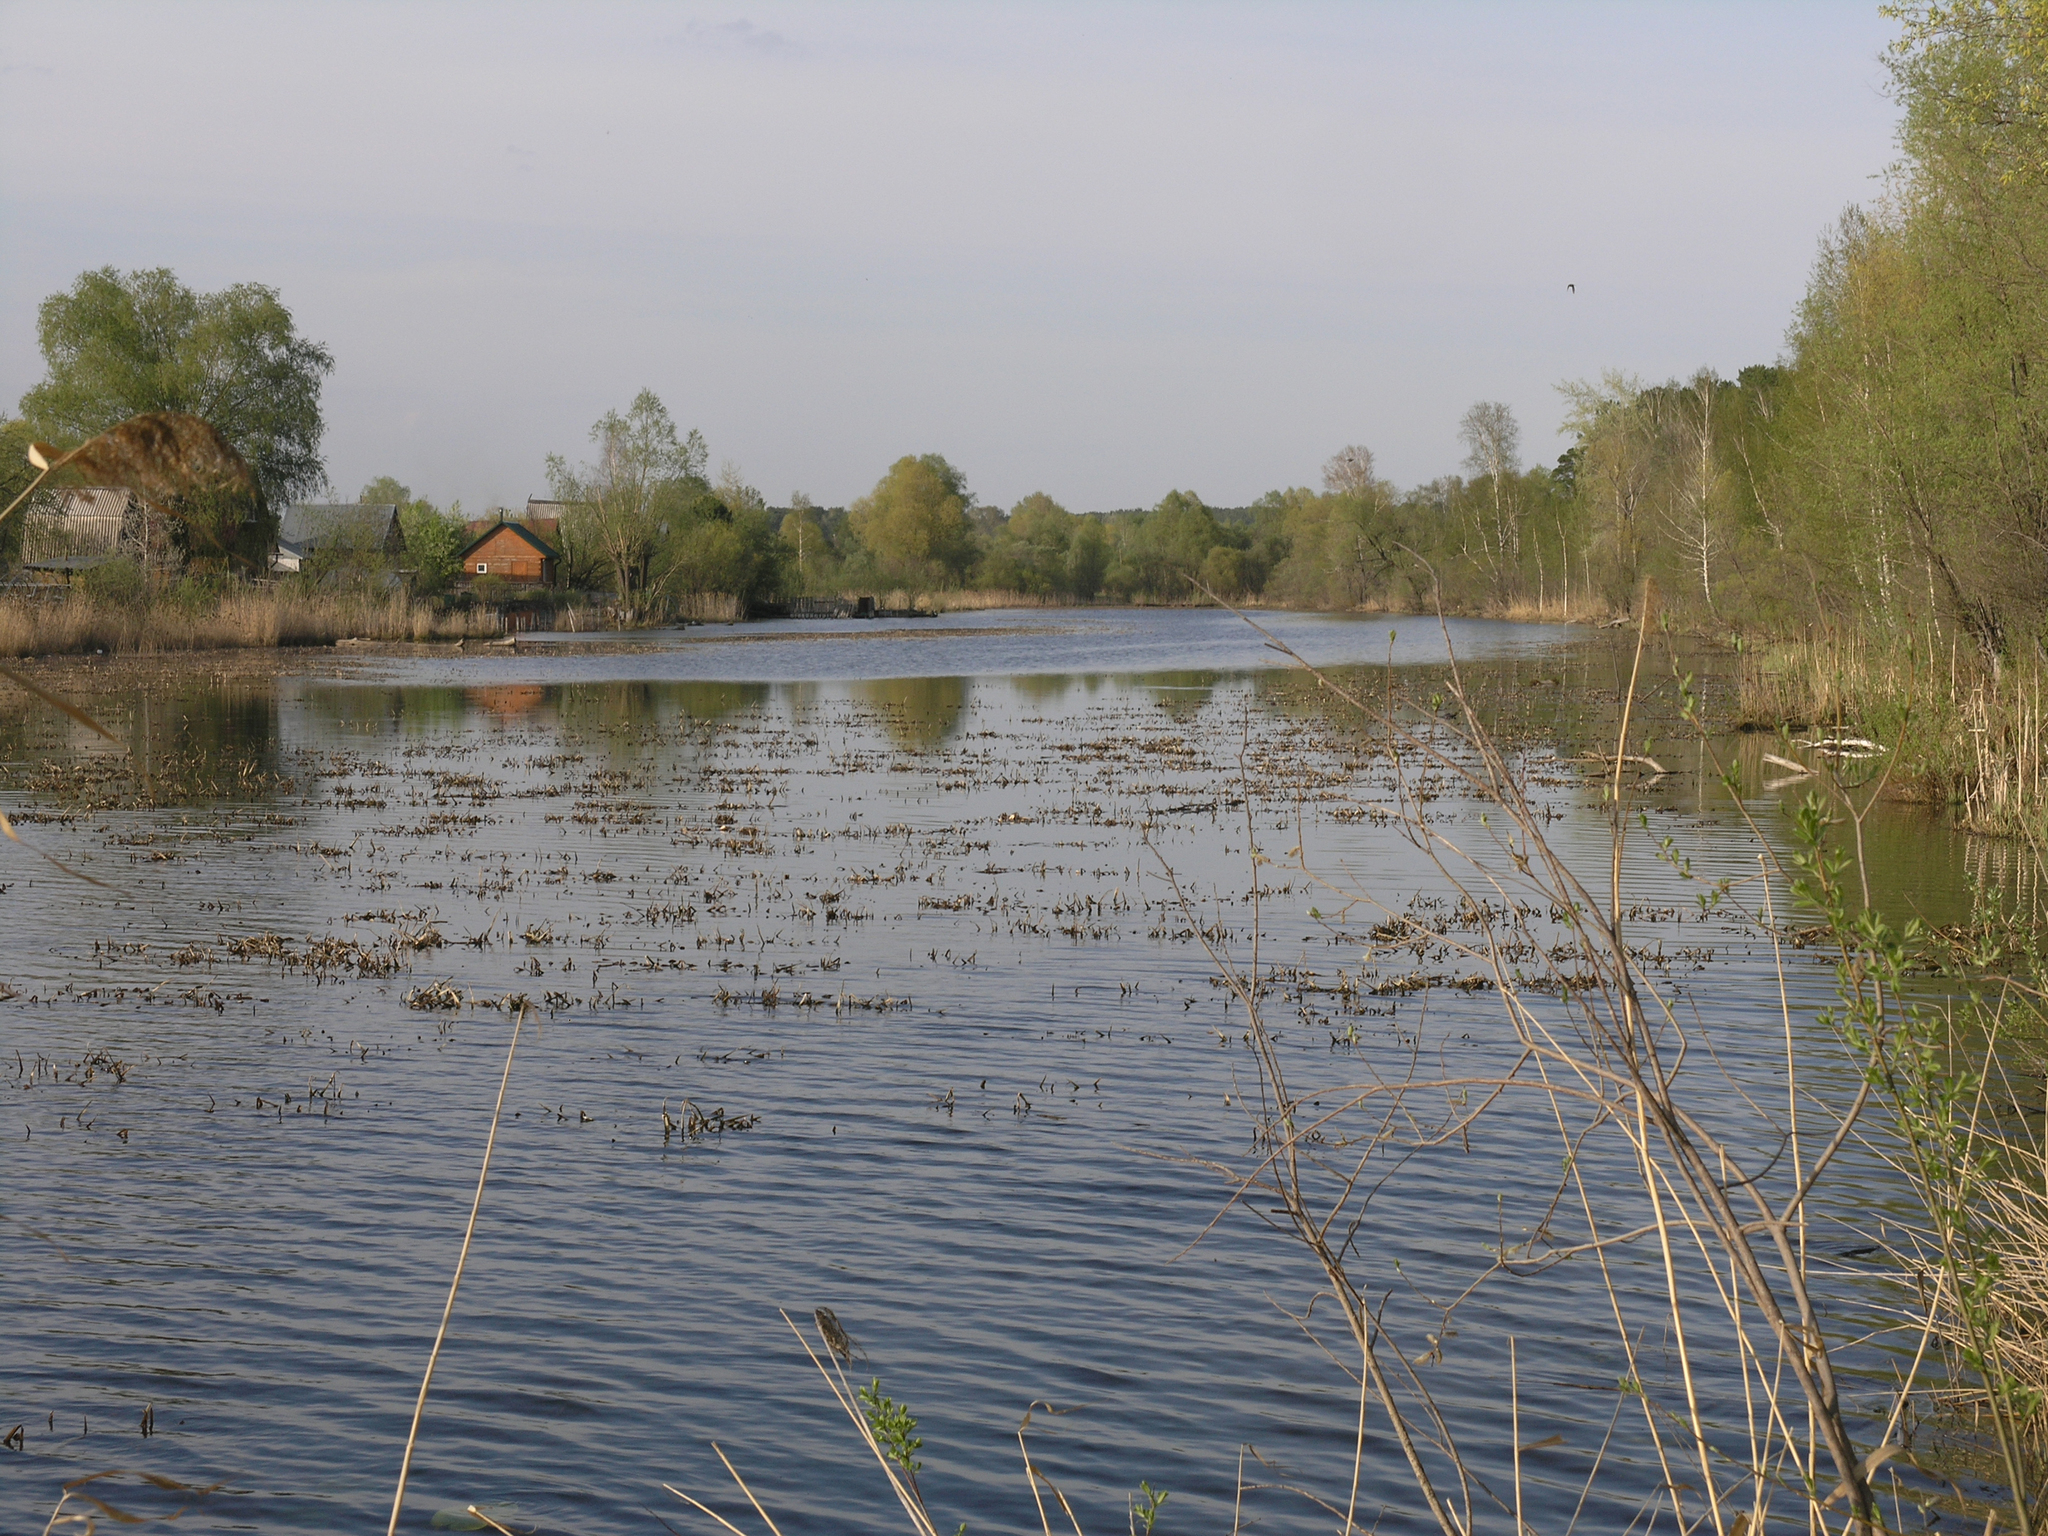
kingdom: Plantae
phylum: Tracheophyta
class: Liliopsida
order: Alismatales
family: Hydrocharitaceae
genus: Stratiotes
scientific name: Stratiotes aloides
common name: Water-soldier
